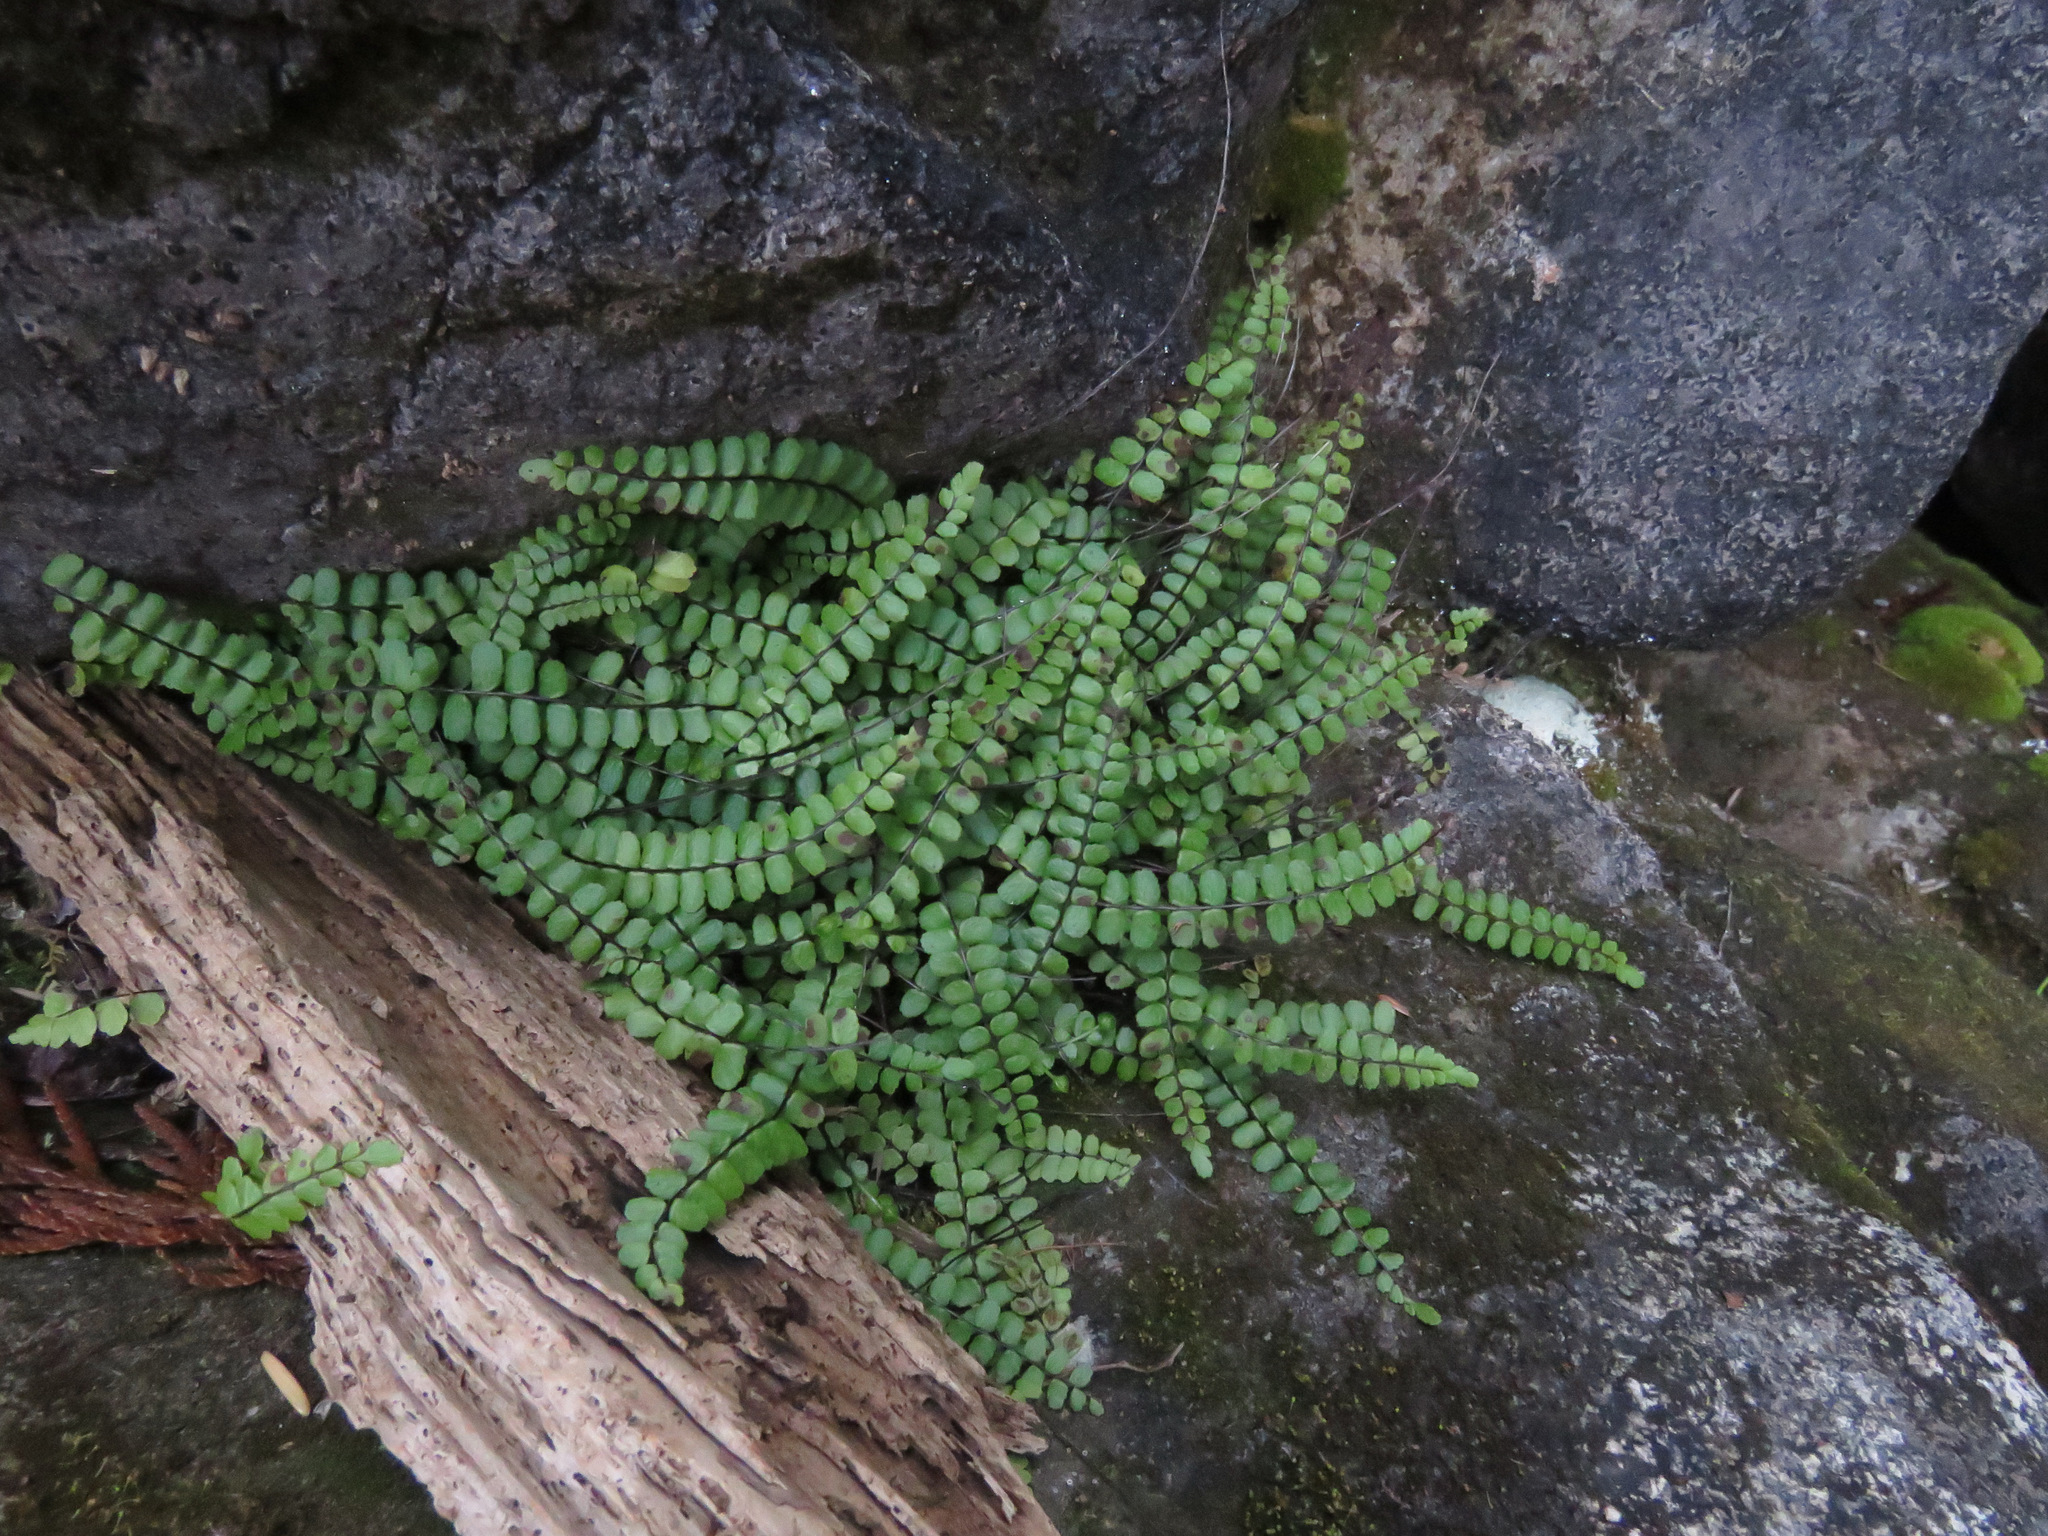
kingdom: Plantae
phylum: Tracheophyta
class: Polypodiopsida
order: Polypodiales
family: Aspleniaceae
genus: Asplenium
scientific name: Asplenium trichomanes
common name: Maidenhair spleenwort
